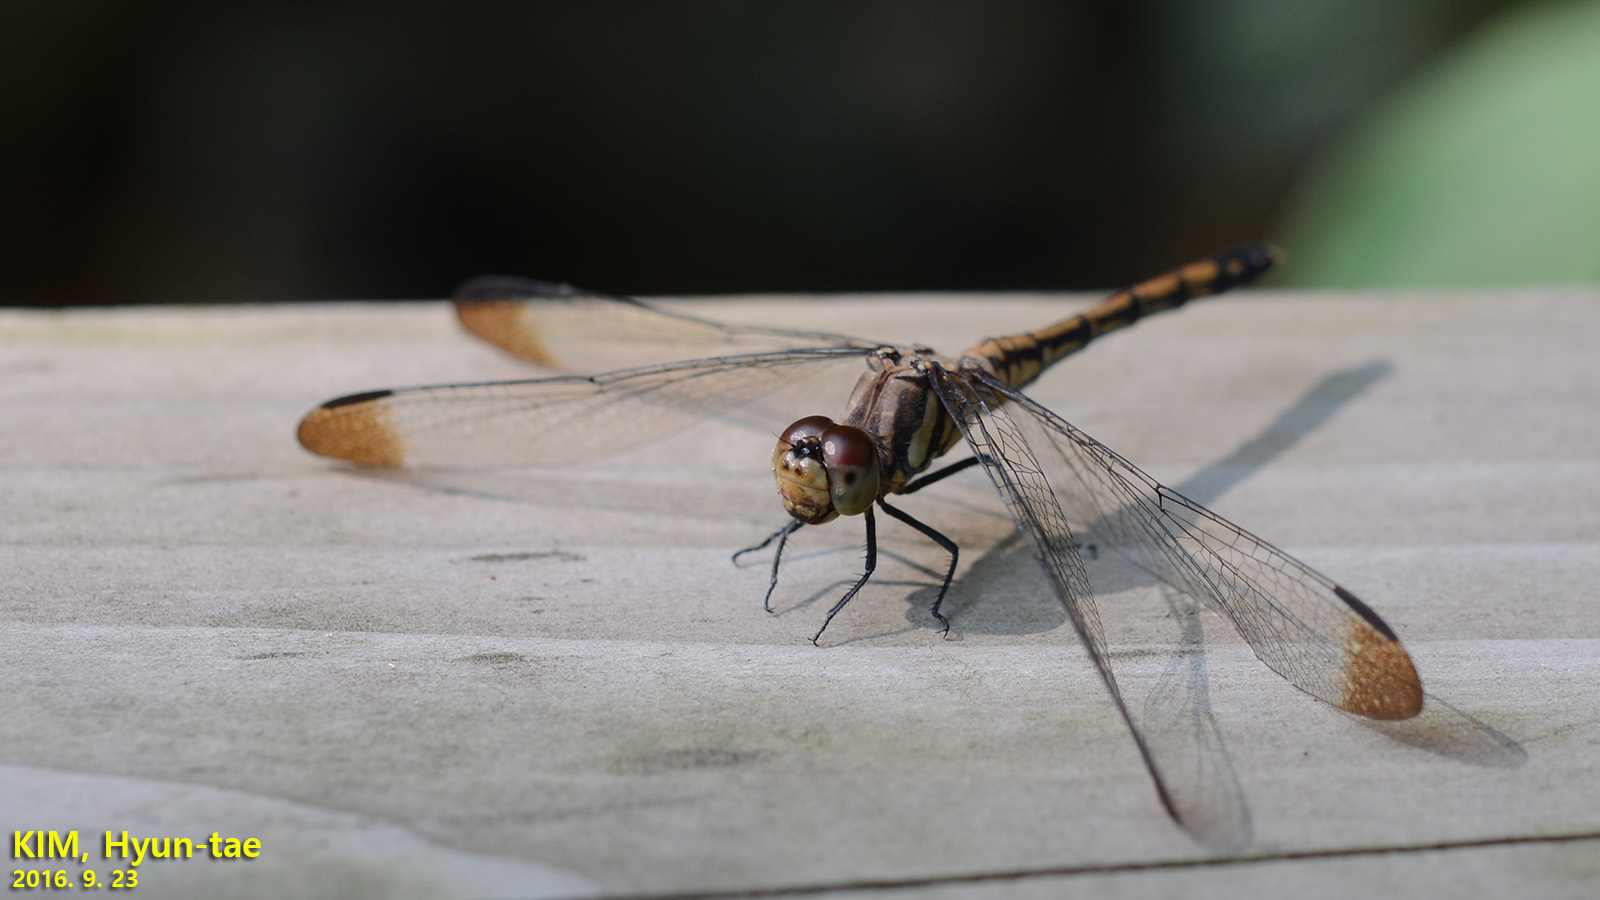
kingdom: Animalia
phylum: Arthropoda
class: Insecta
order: Odonata
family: Libellulidae
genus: Sympetrum
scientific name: Sympetrum infuscatum
